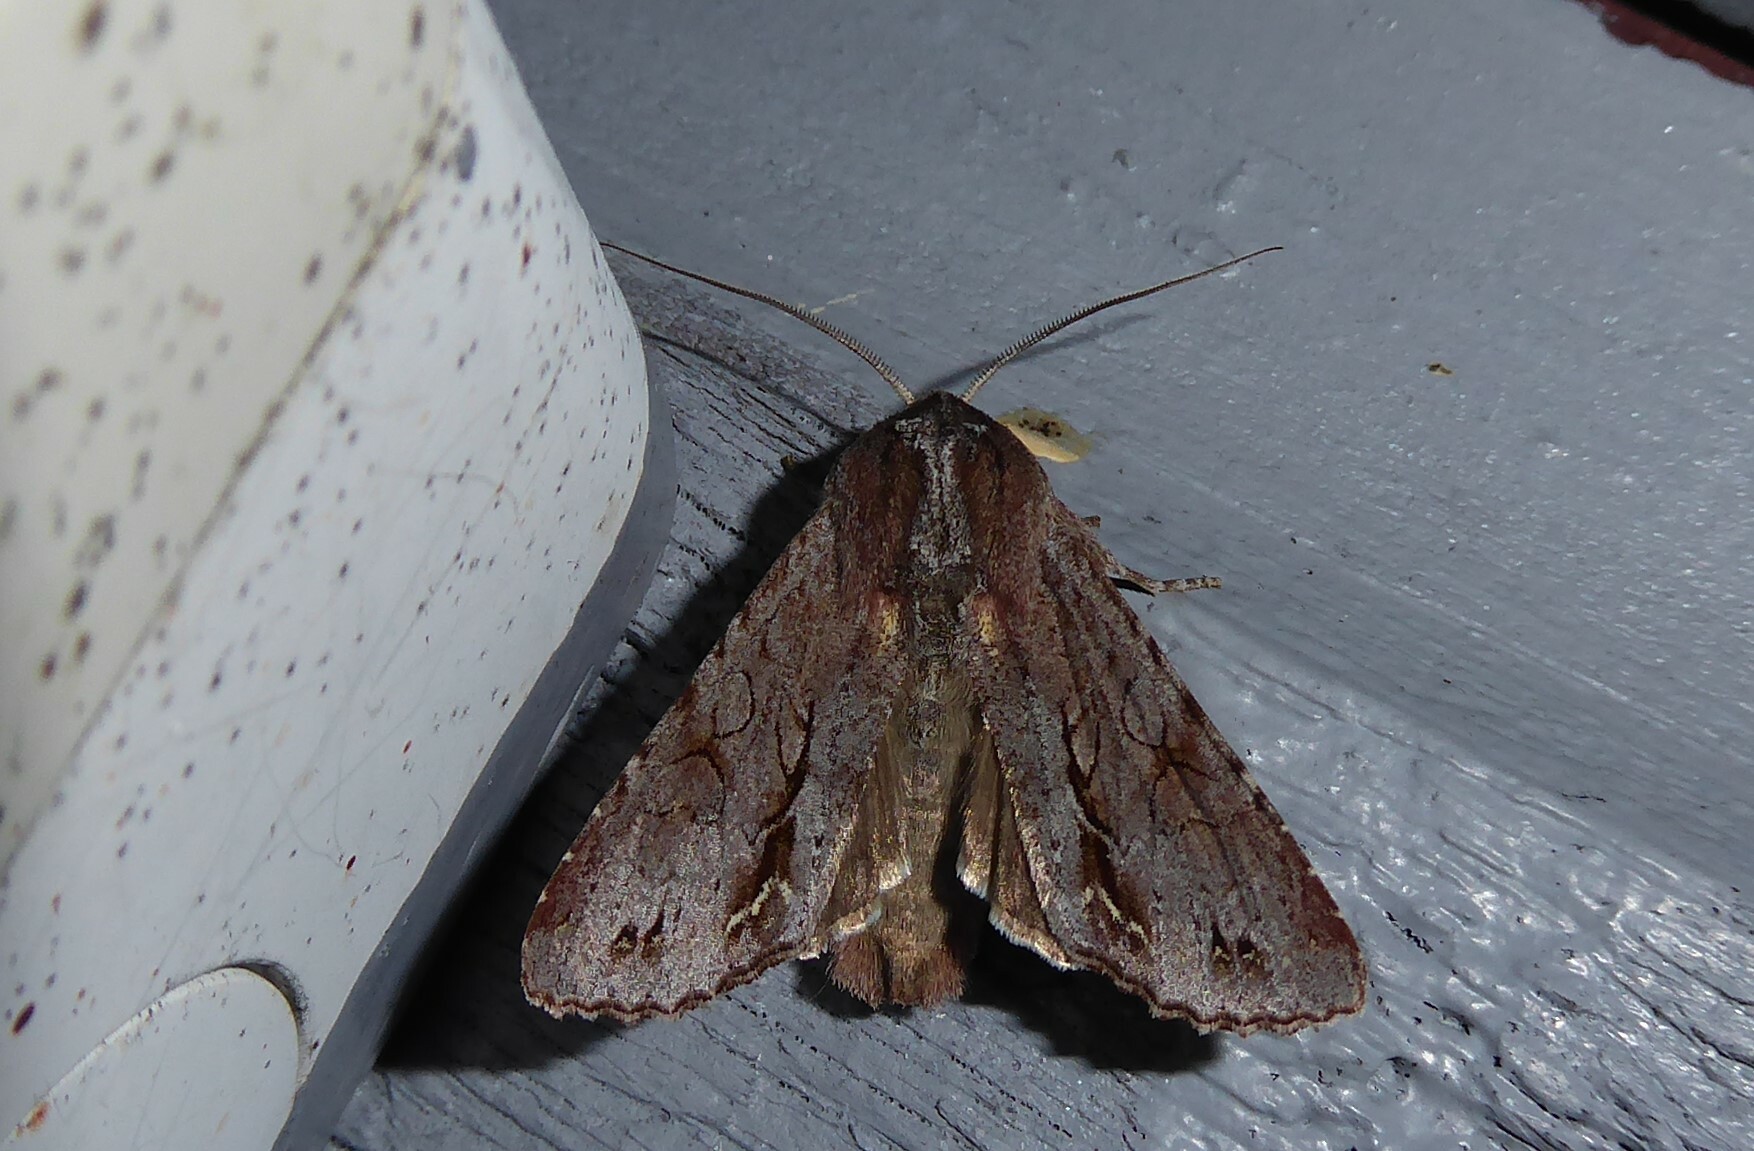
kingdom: Animalia
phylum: Arthropoda
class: Insecta
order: Lepidoptera
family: Noctuidae
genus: Ichneutica
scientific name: Ichneutica
